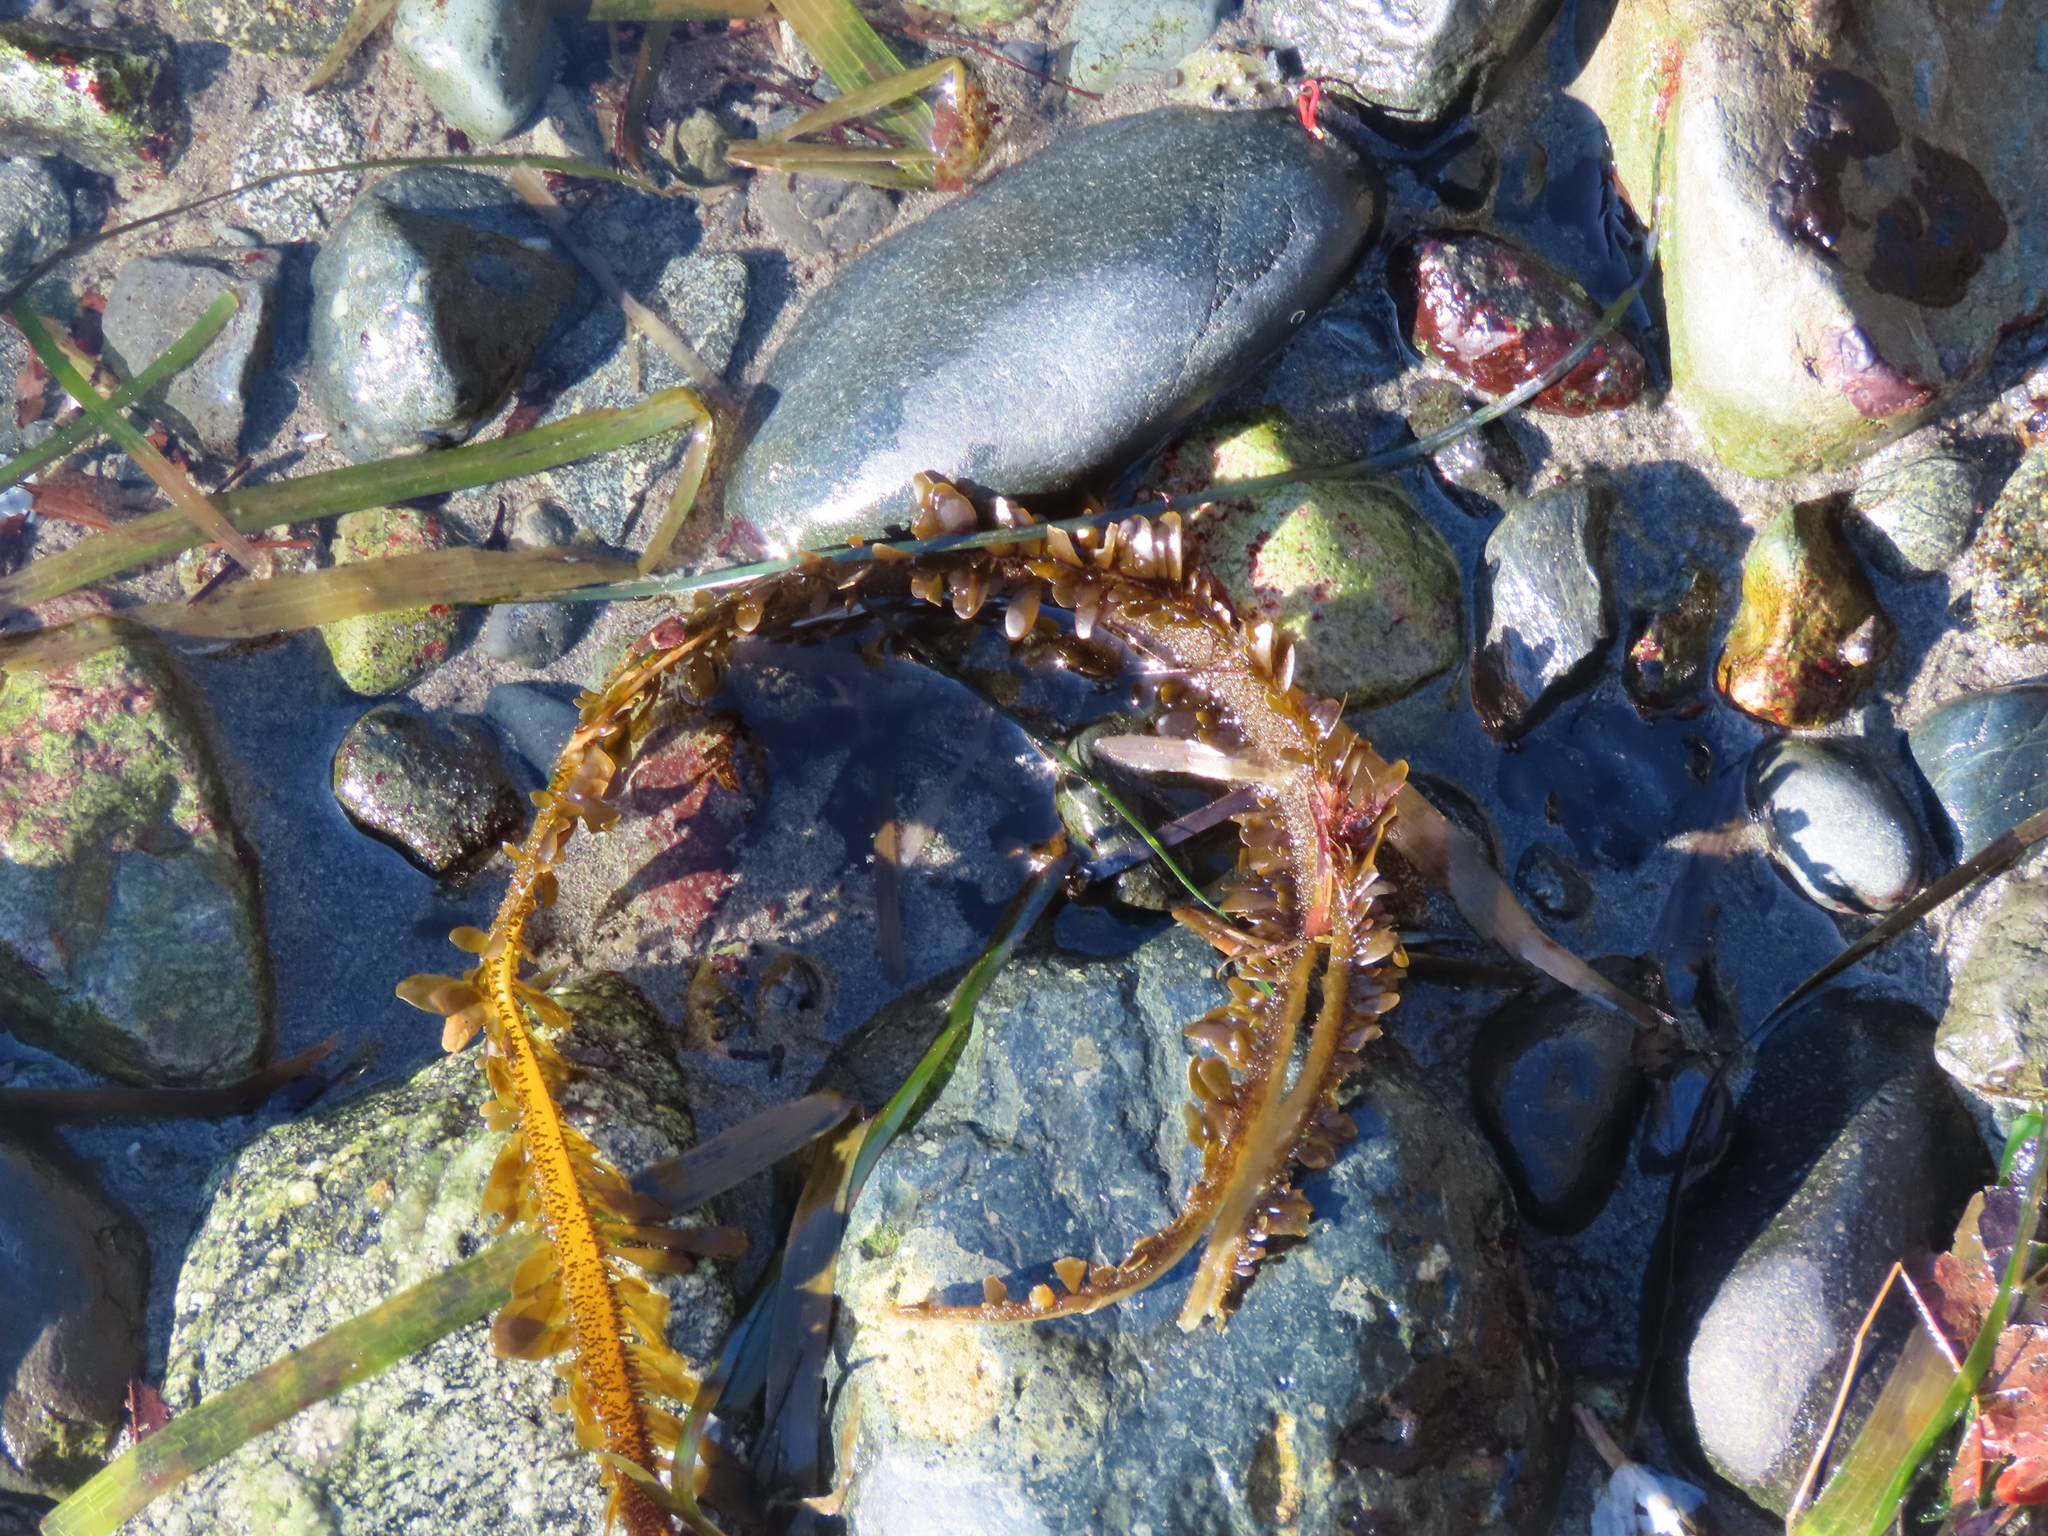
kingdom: Chromista
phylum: Ochrophyta
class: Phaeophyceae
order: Laminariales
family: Lessoniaceae
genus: Egregia
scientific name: Egregia menziesii
